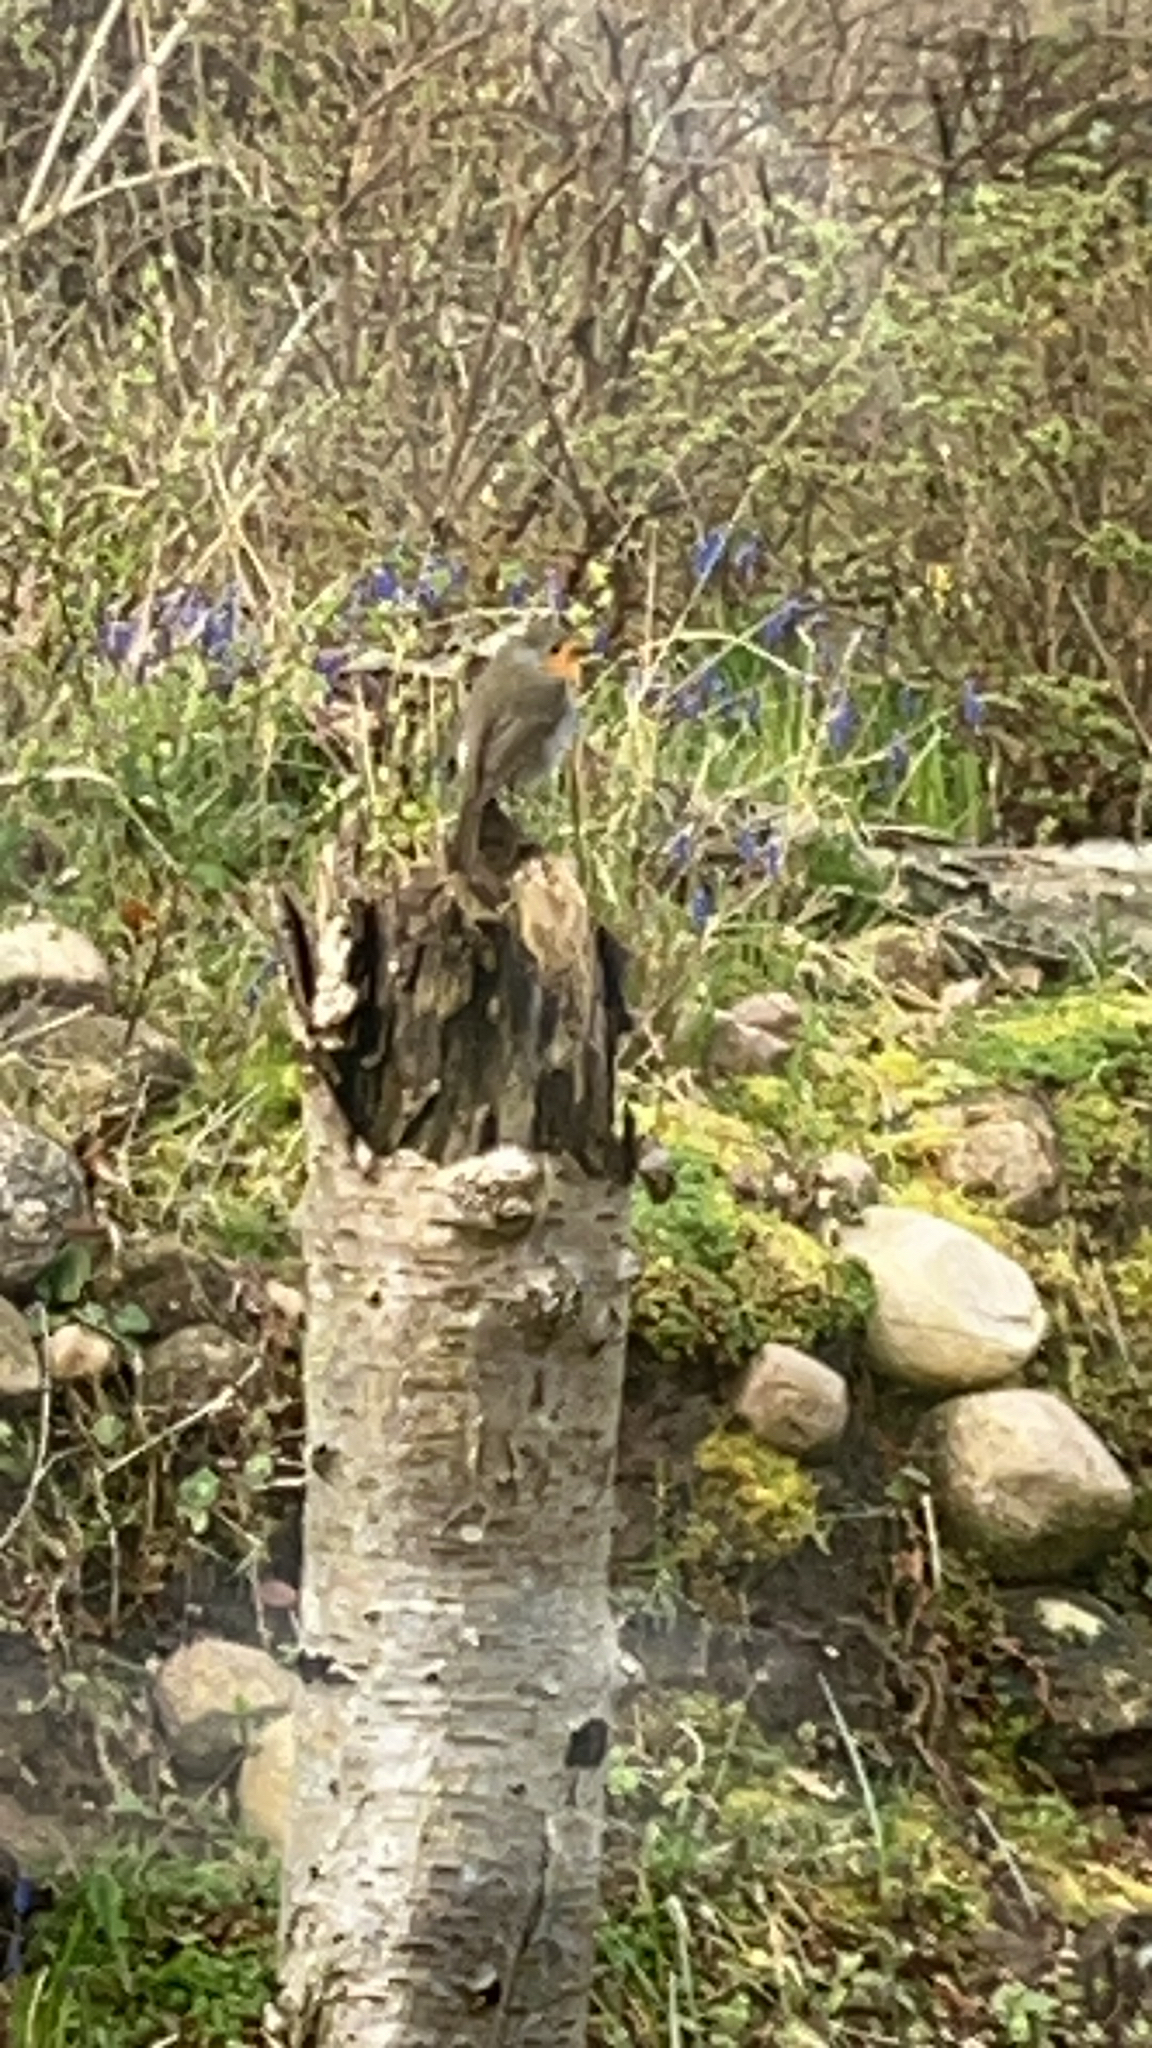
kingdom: Animalia
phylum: Chordata
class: Aves
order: Passeriformes
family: Muscicapidae
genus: Erithacus
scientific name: Erithacus rubecula
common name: European robin
